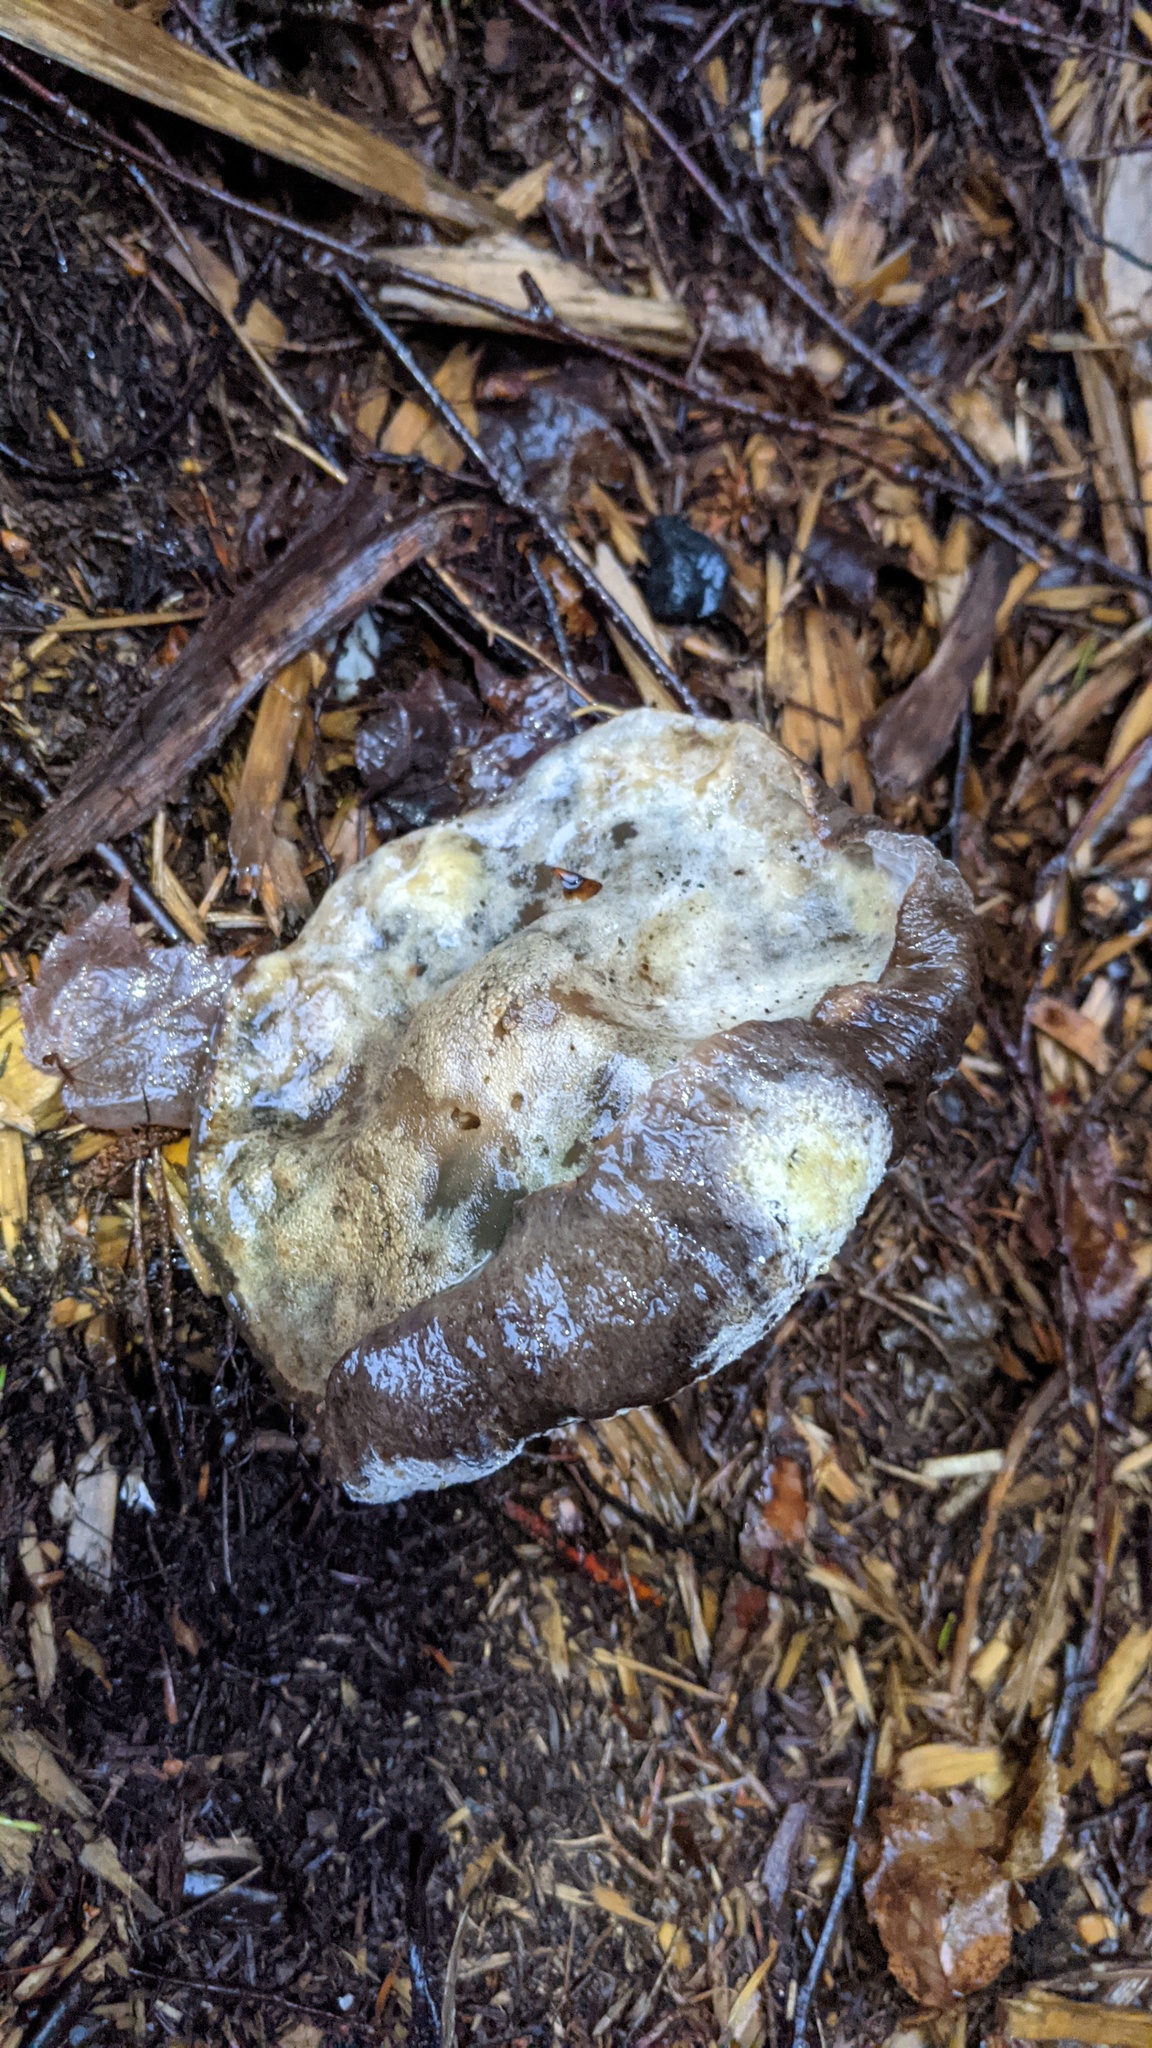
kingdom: Fungi
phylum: Ascomycota
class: Sordariomycetes
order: Hypocreales
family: Hypocreaceae
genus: Hypomyces
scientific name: Hypomyces chrysospermus
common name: Bolete mould
